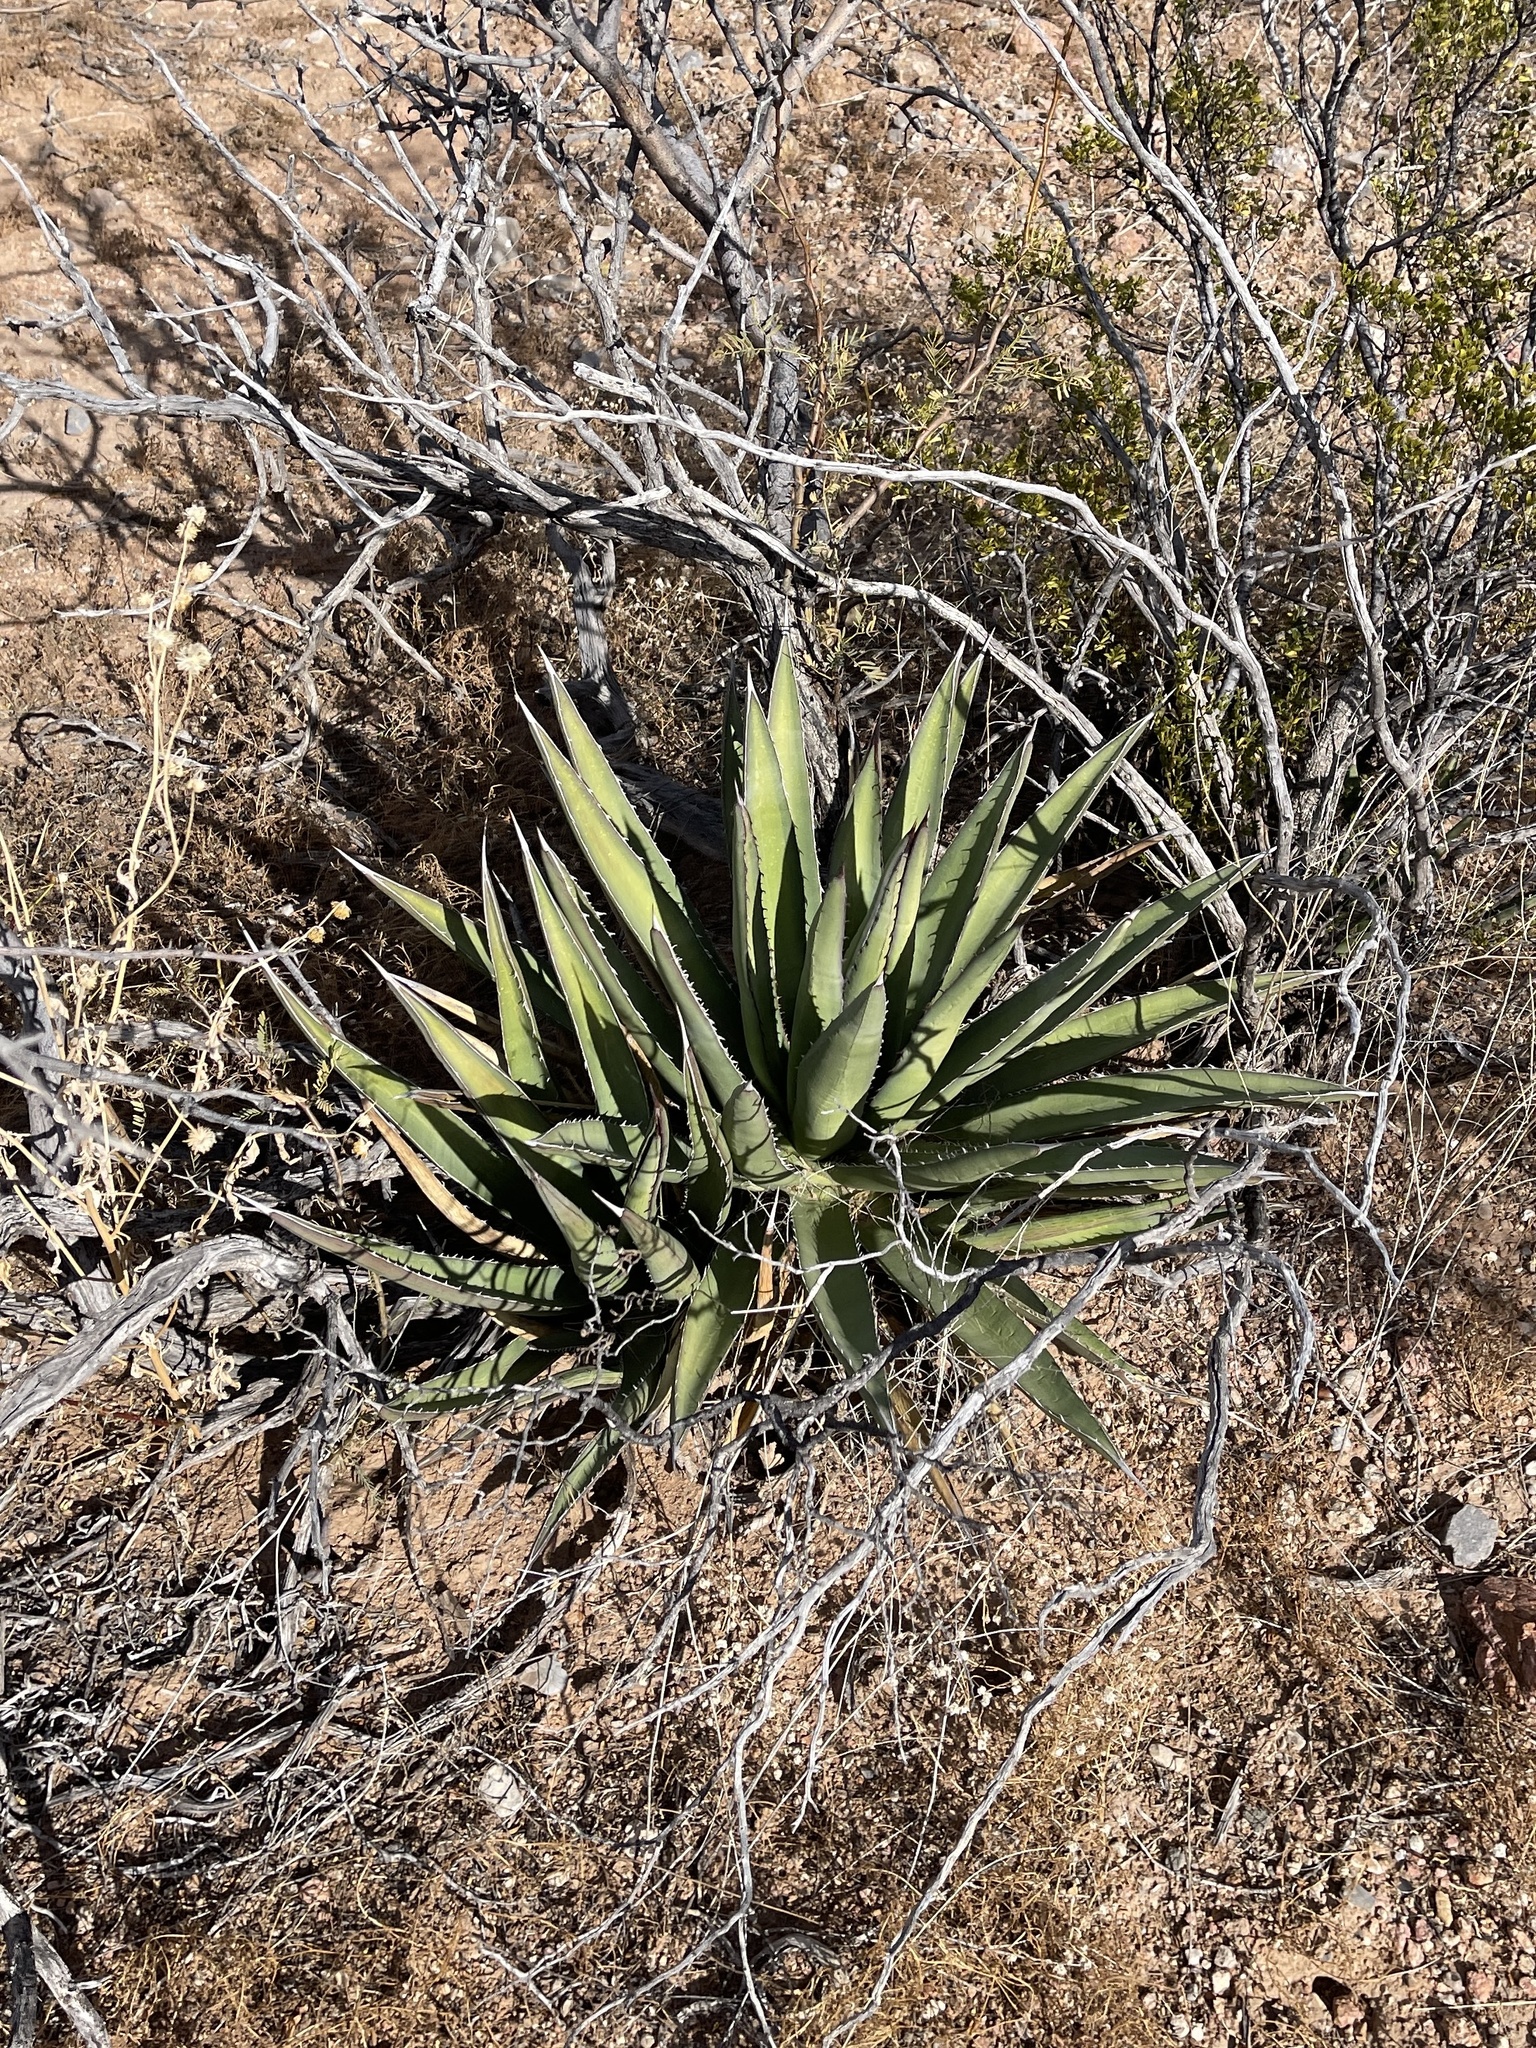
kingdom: Plantae
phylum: Tracheophyta
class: Liliopsida
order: Asparagales
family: Asparagaceae
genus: Agave
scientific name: Agave lechuguilla
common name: Lecheguilla agave
